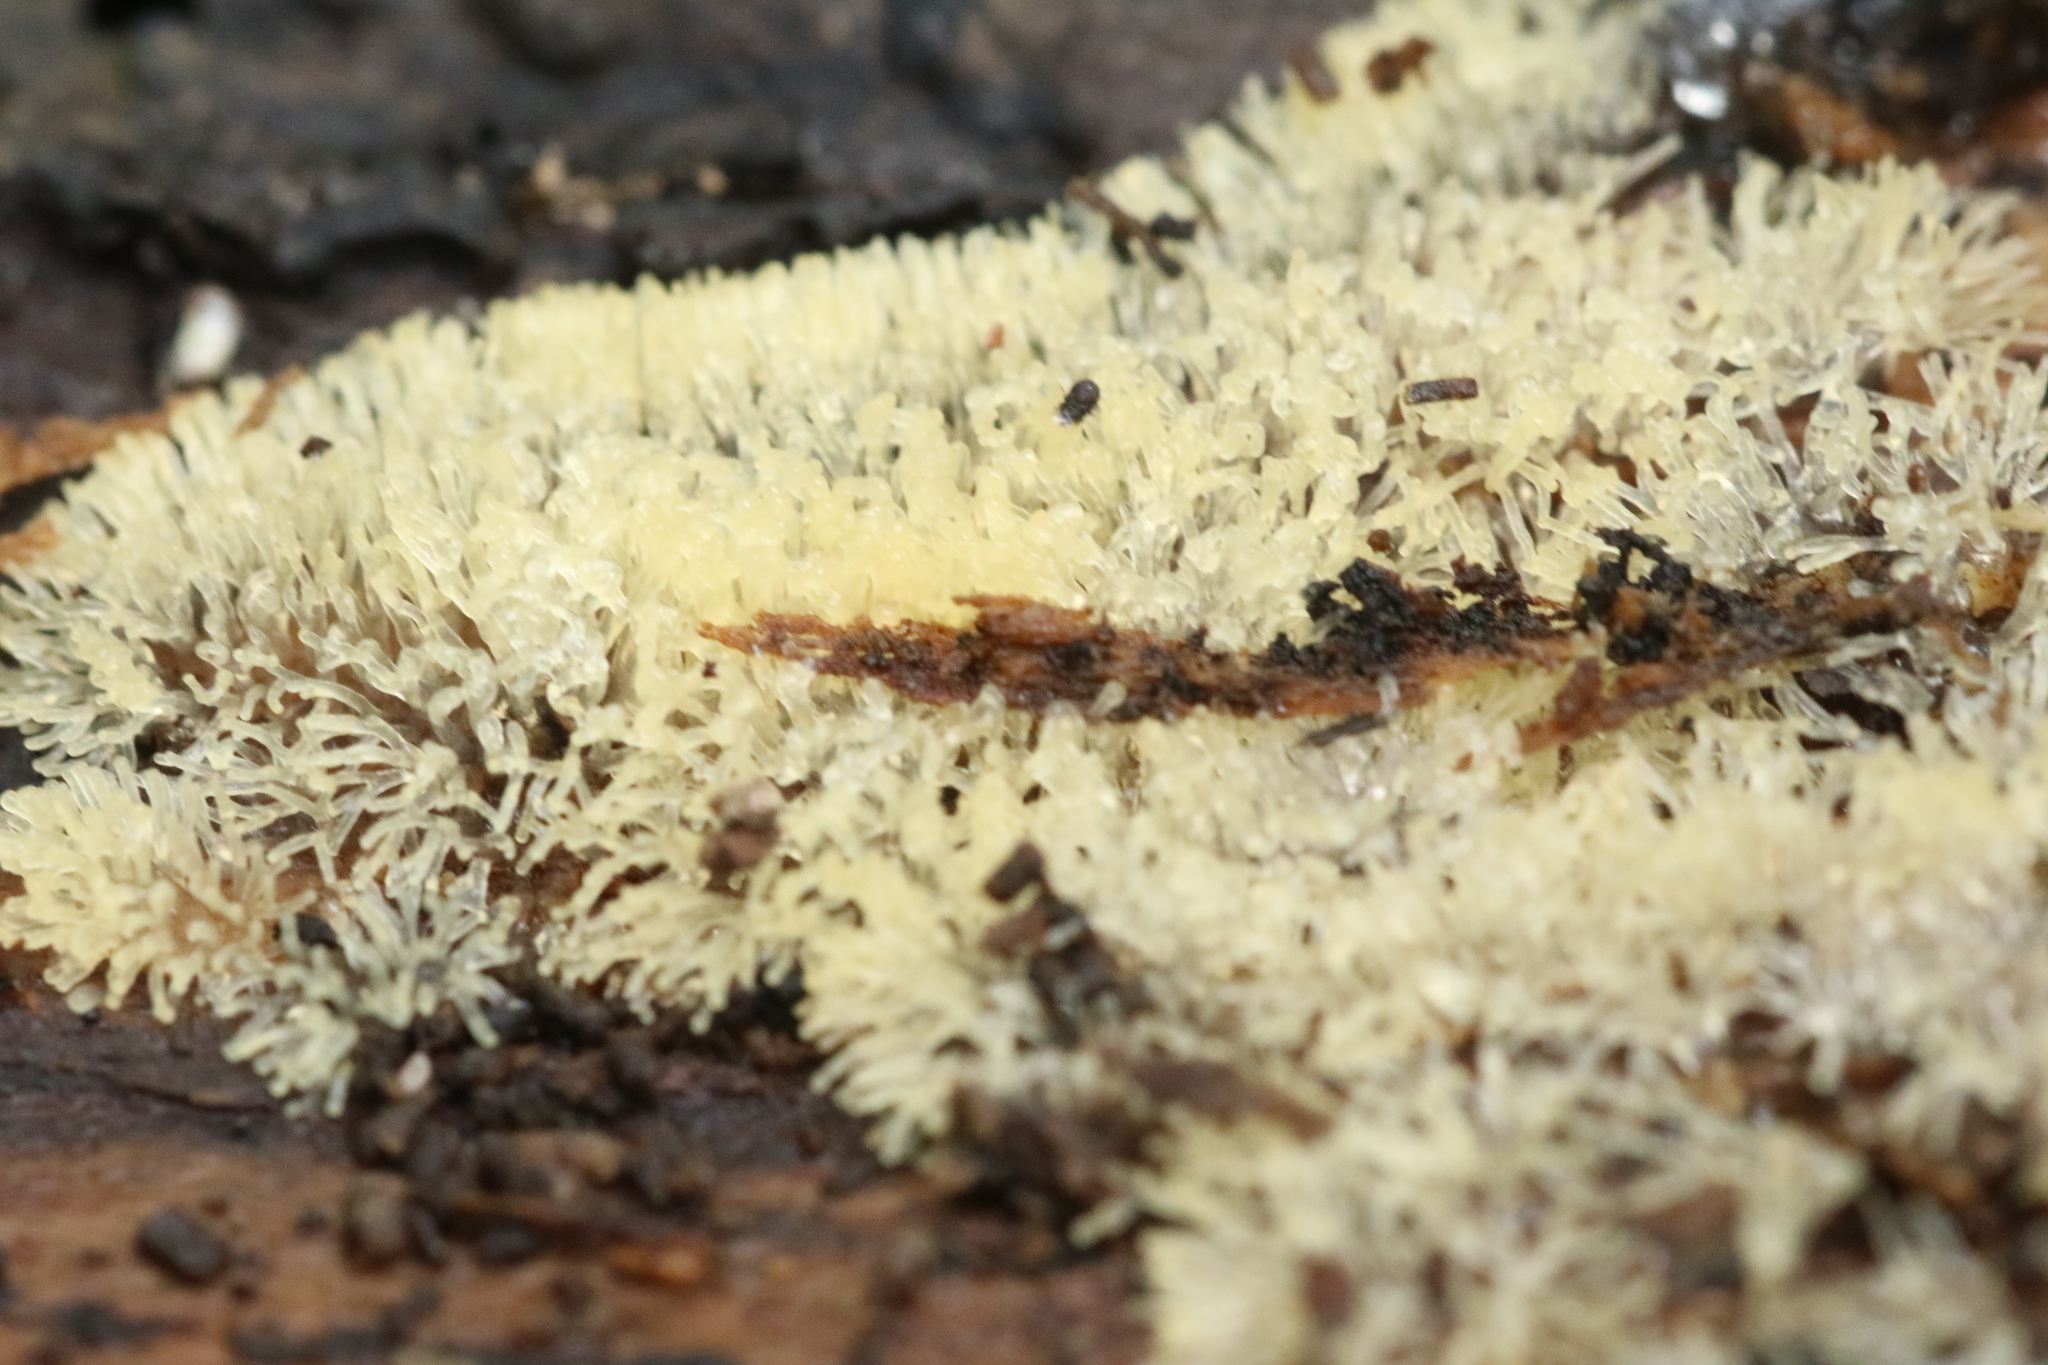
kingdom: Protozoa
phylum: Mycetozoa
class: Protosteliomycetes
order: Ceratiomyxales
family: Ceratiomyxaceae
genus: Ceratiomyxa
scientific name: Ceratiomyxa fruticulosa
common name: Honeycomb coral slime mold
